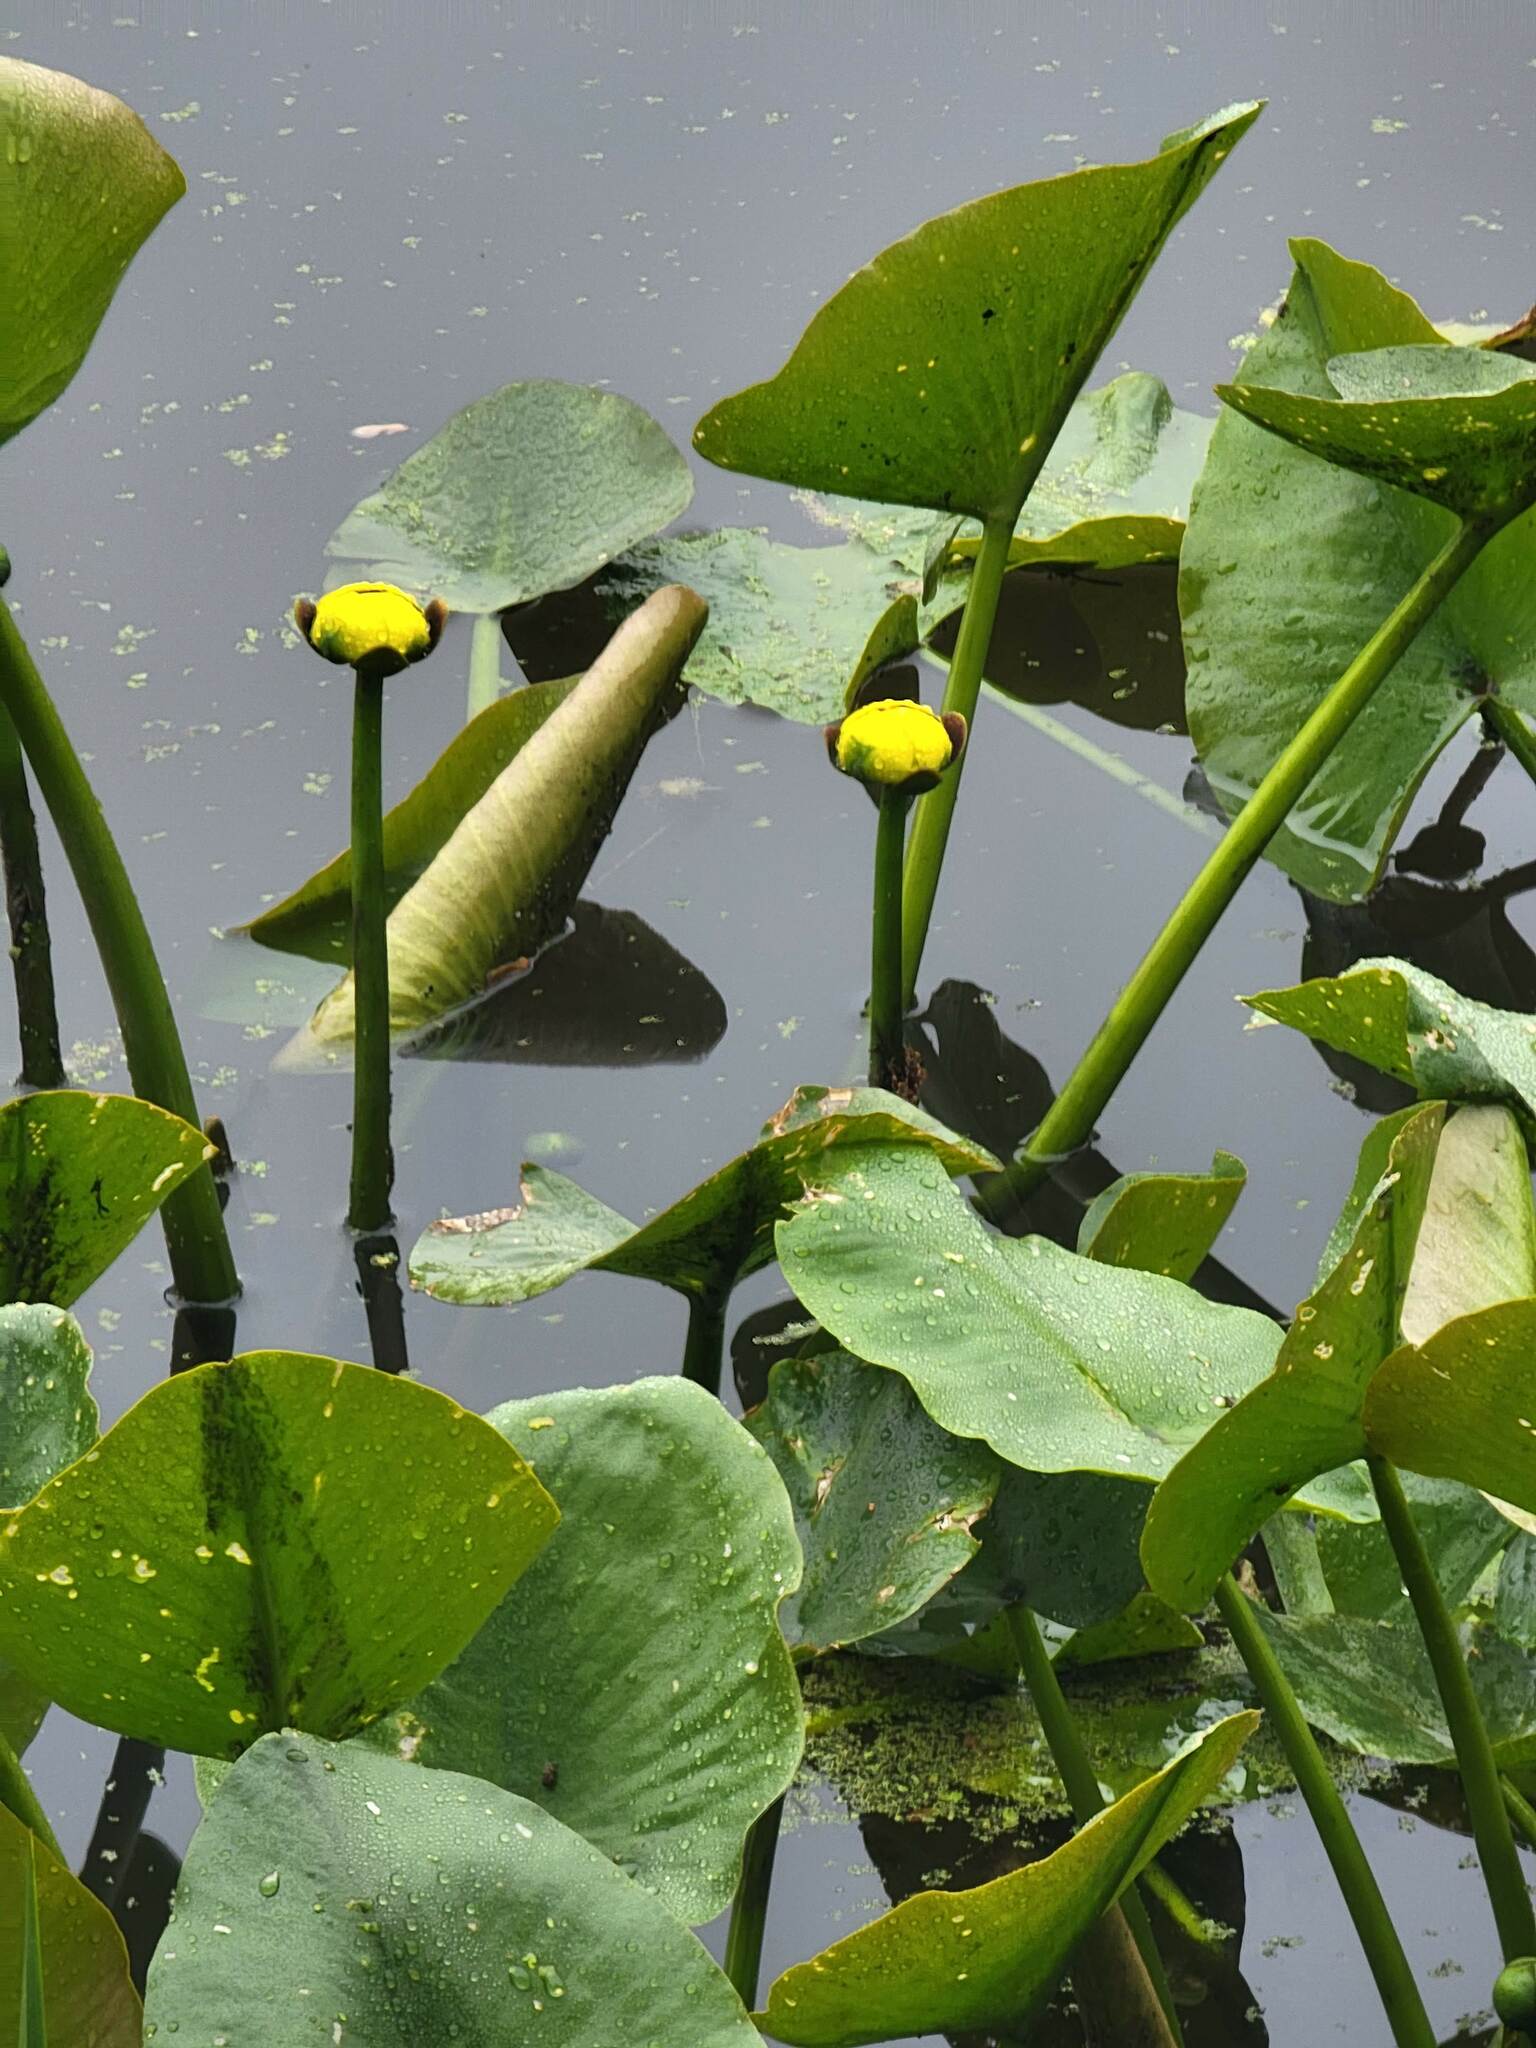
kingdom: Plantae
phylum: Tracheophyta
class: Magnoliopsida
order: Nymphaeales
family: Nymphaeaceae
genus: Nuphar
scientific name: Nuphar advena
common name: Spatter-dock
